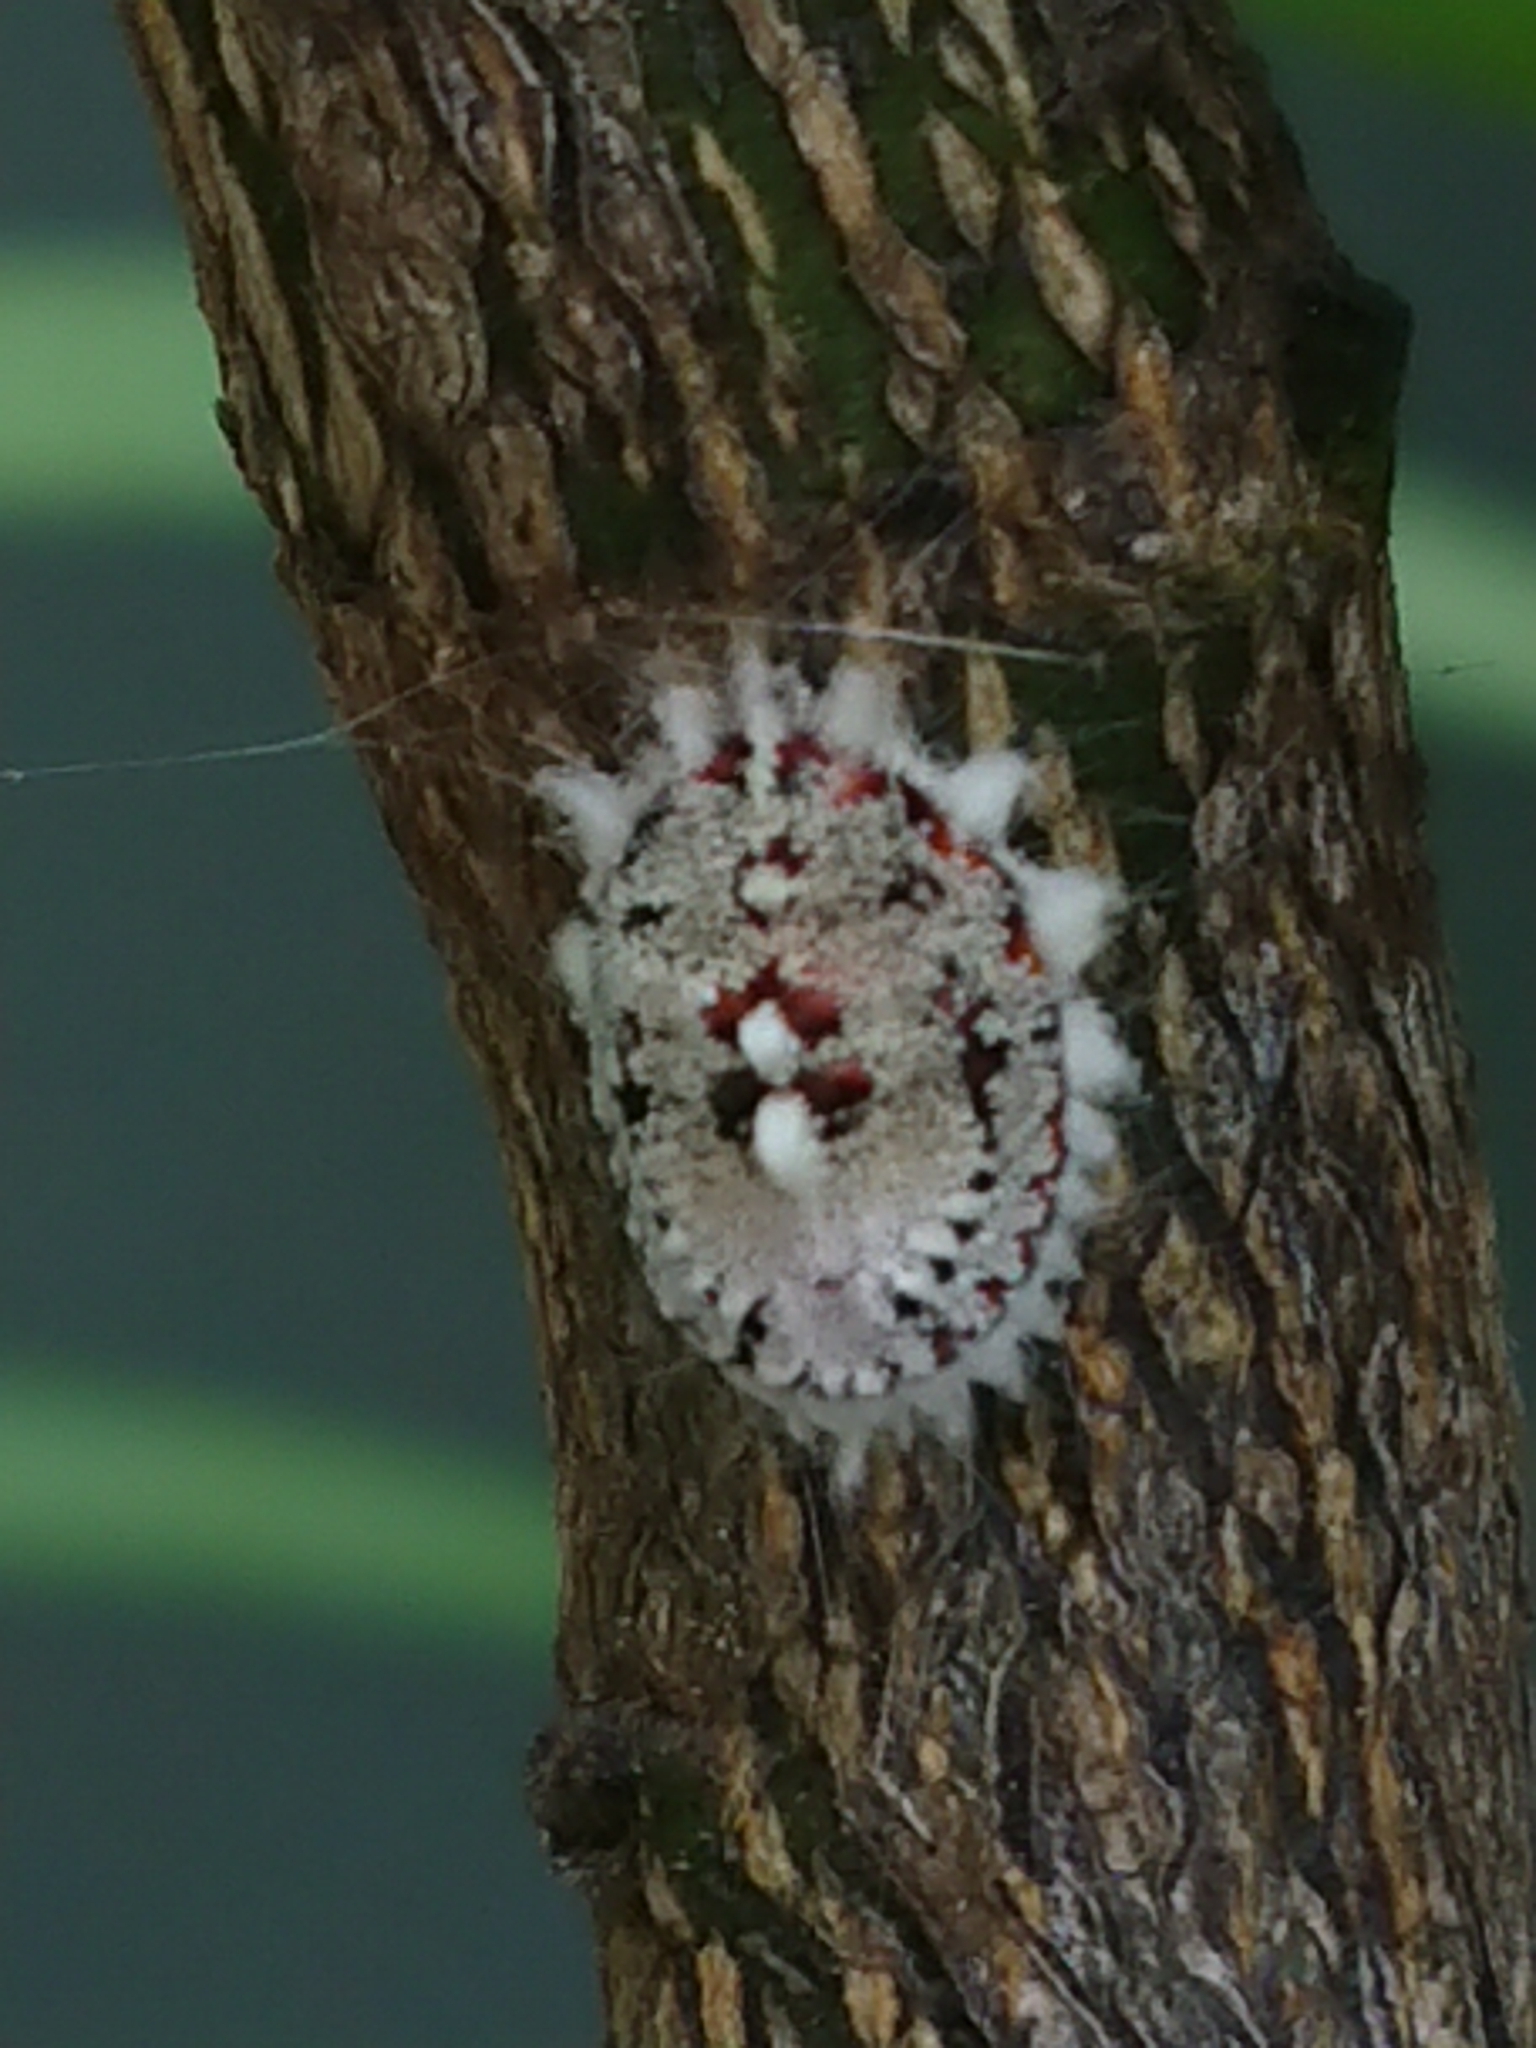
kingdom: Animalia
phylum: Arthropoda
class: Insecta
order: Hemiptera
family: Margarodidae
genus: Icerya
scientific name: Icerya purchasi
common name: Cottony cushion scale
